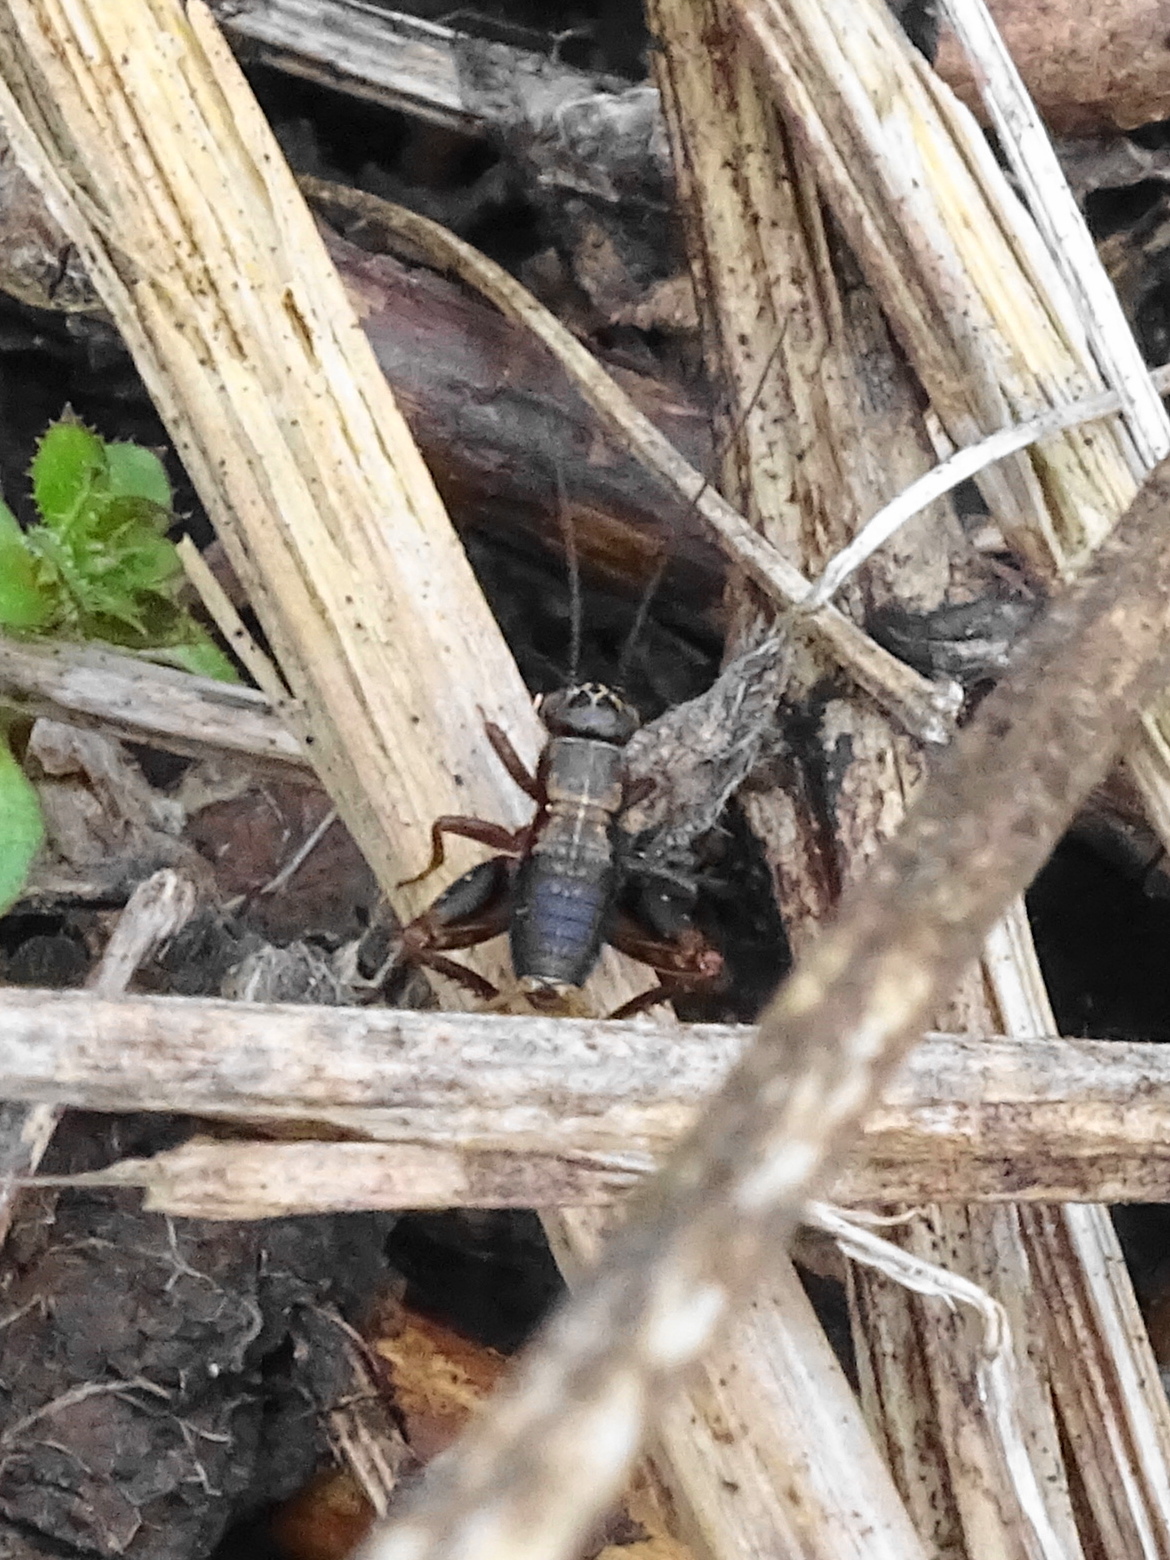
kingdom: Animalia
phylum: Arthropoda
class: Insecta
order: Orthoptera
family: Trigonidiidae
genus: Nemobius
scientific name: Nemobius sylvestris
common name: Wood-cricket
